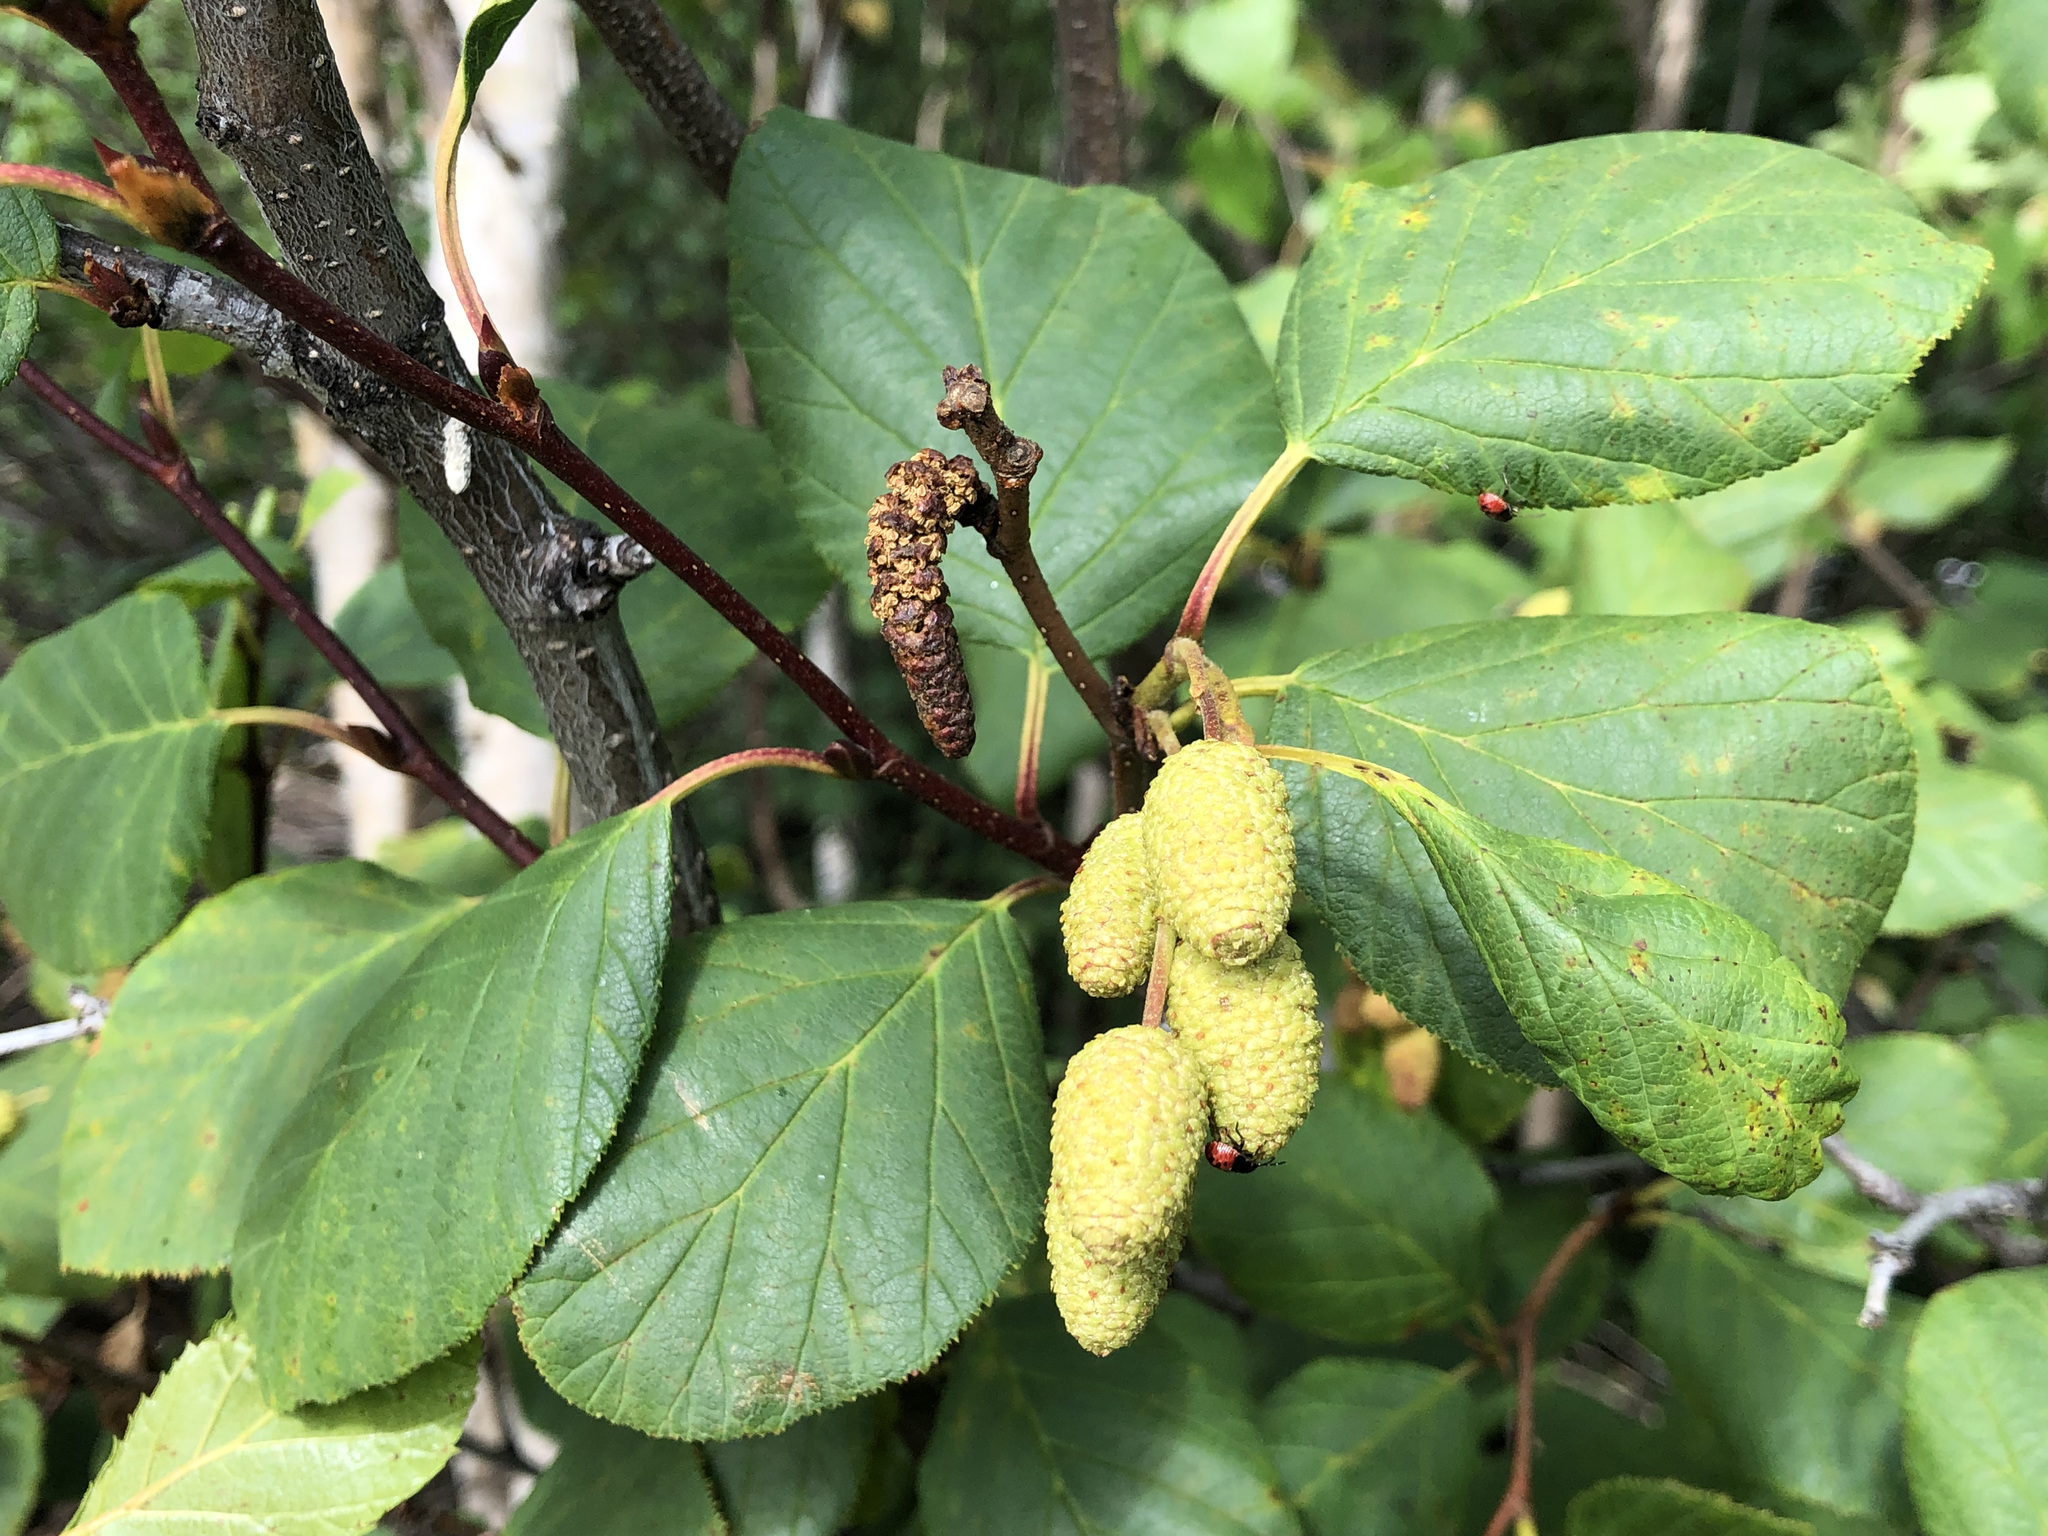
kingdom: Plantae
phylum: Tracheophyta
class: Magnoliopsida
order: Fagales
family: Betulaceae
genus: Alnus
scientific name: Alnus alnobetula
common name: Green alder
